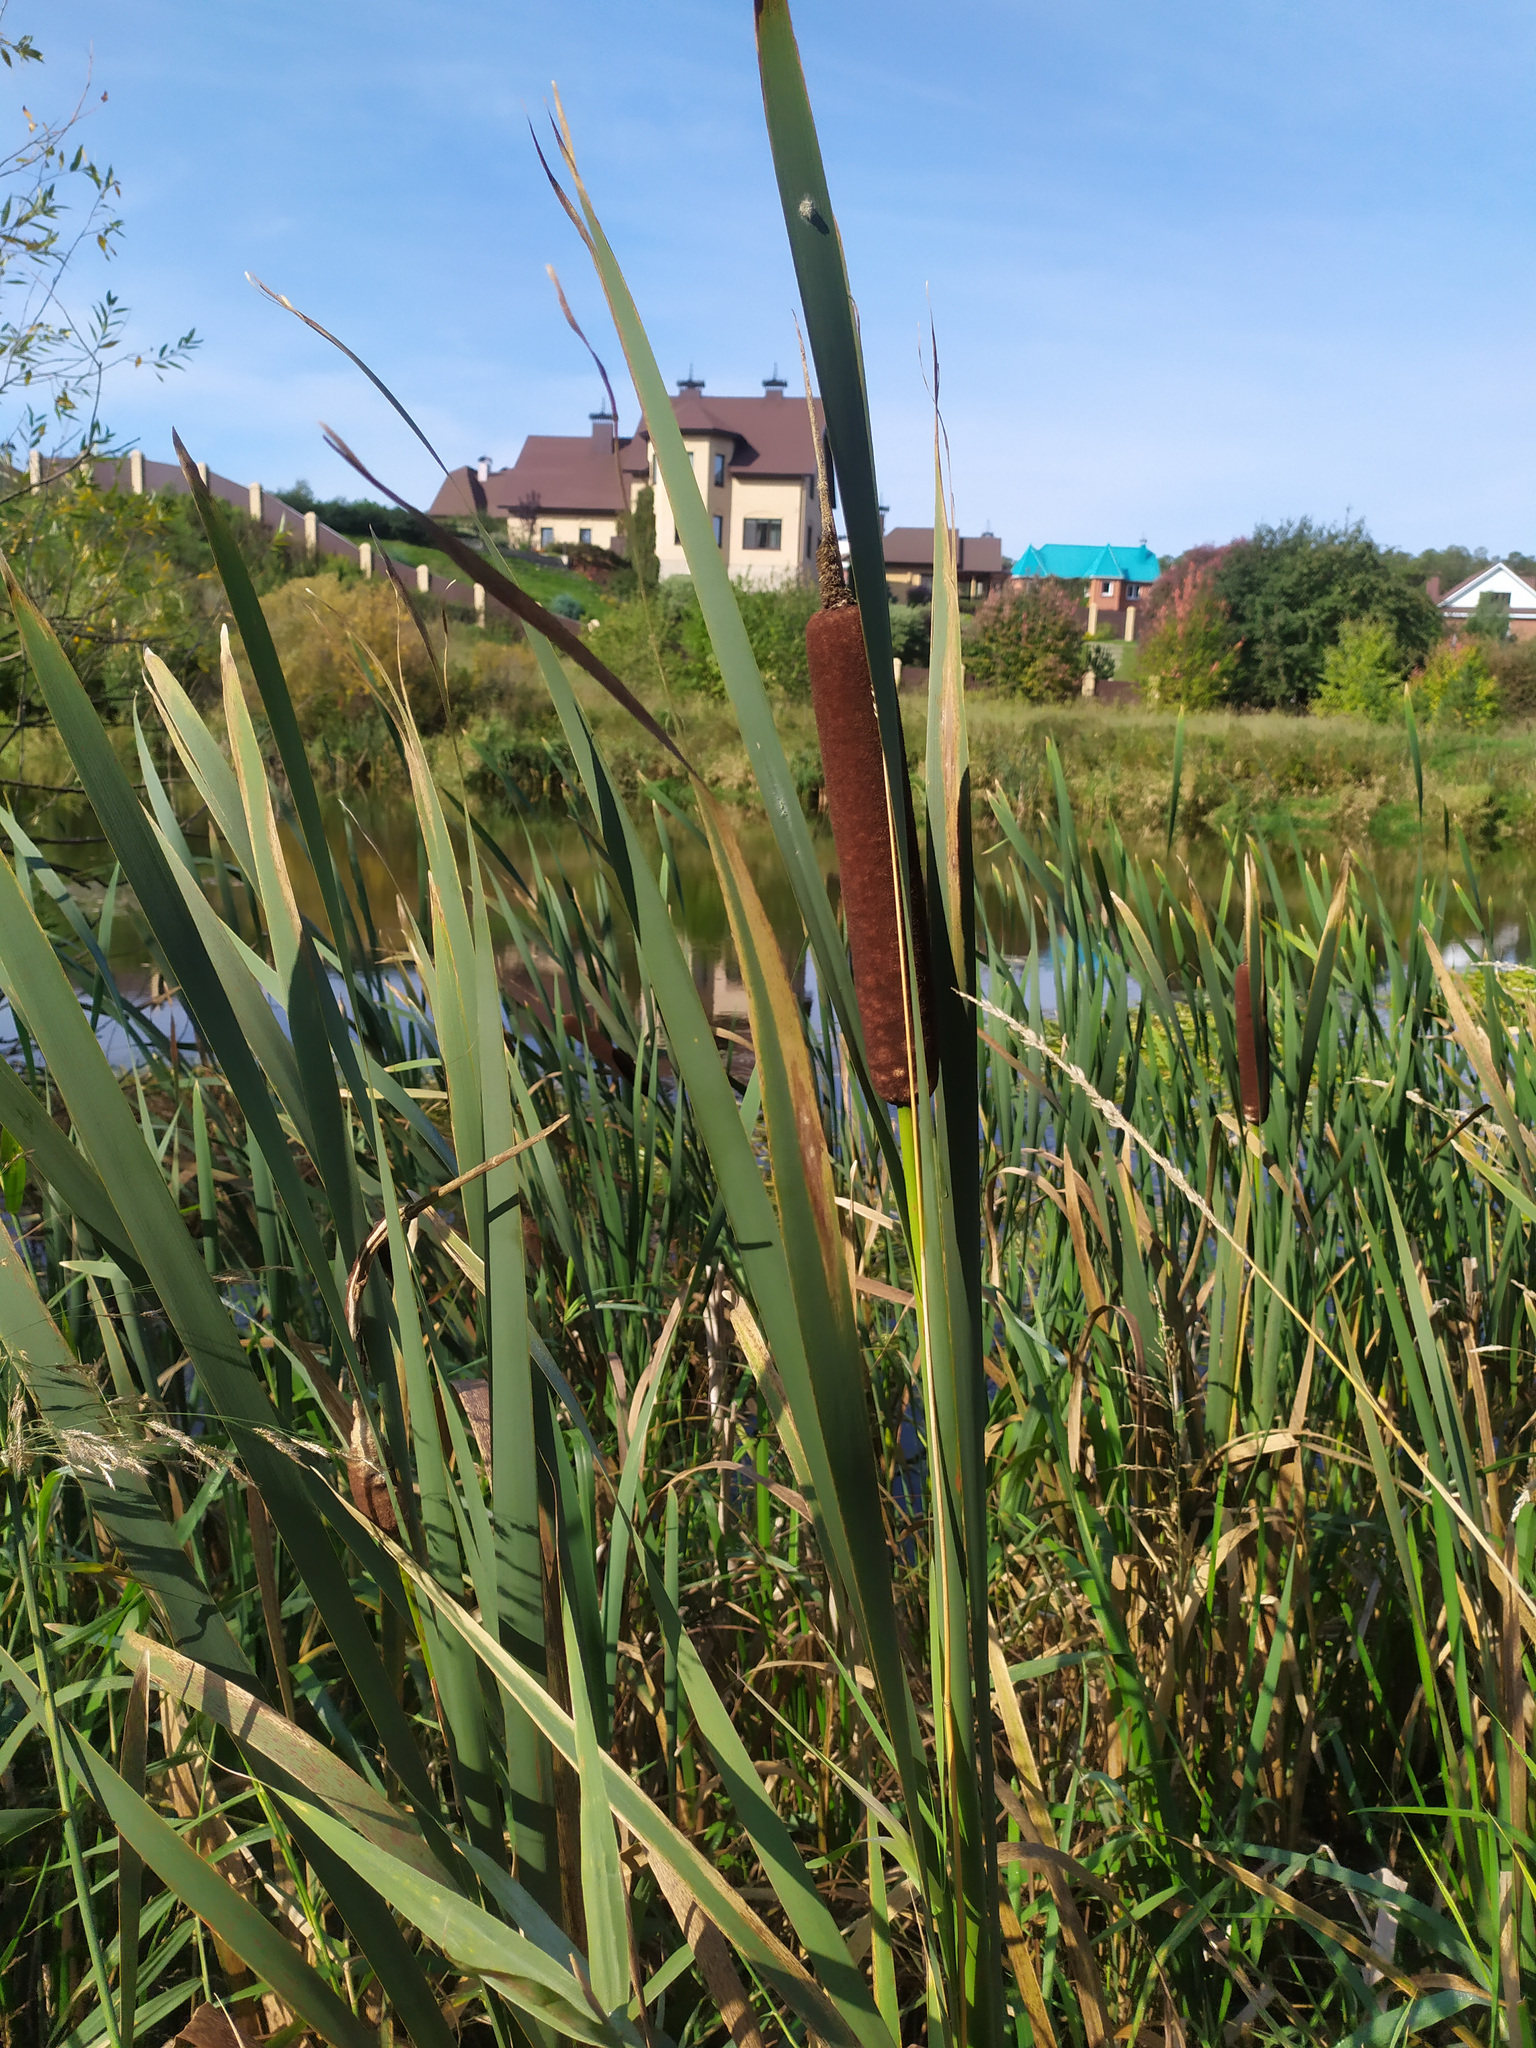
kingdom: Plantae
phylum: Tracheophyta
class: Liliopsida
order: Poales
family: Typhaceae
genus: Typha
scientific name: Typha latifolia
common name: Broadleaf cattail
